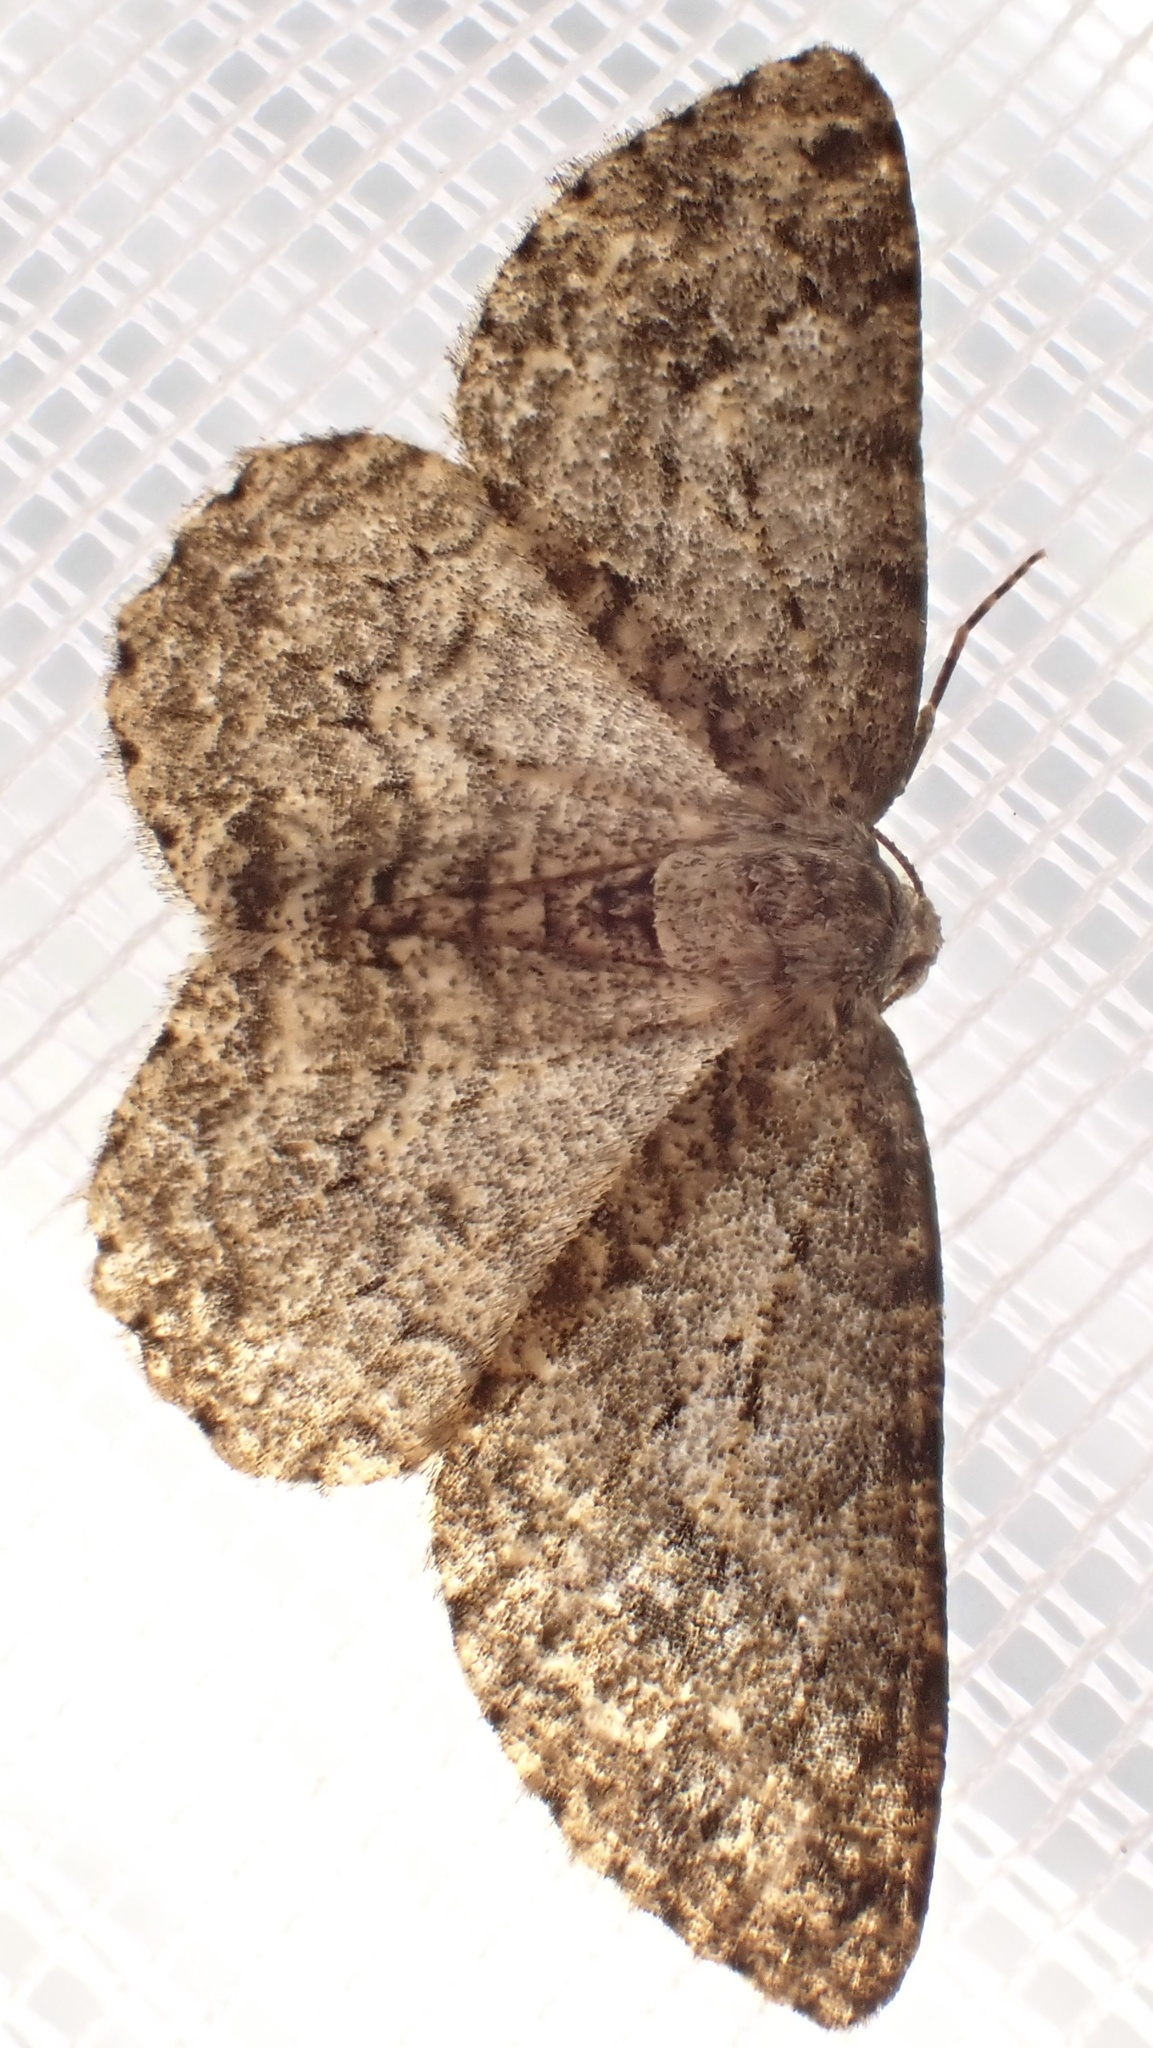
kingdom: Animalia
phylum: Arthropoda
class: Insecta
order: Lepidoptera
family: Geometridae
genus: Ectropis
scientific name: Ectropis crepuscularia
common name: Engrailed
